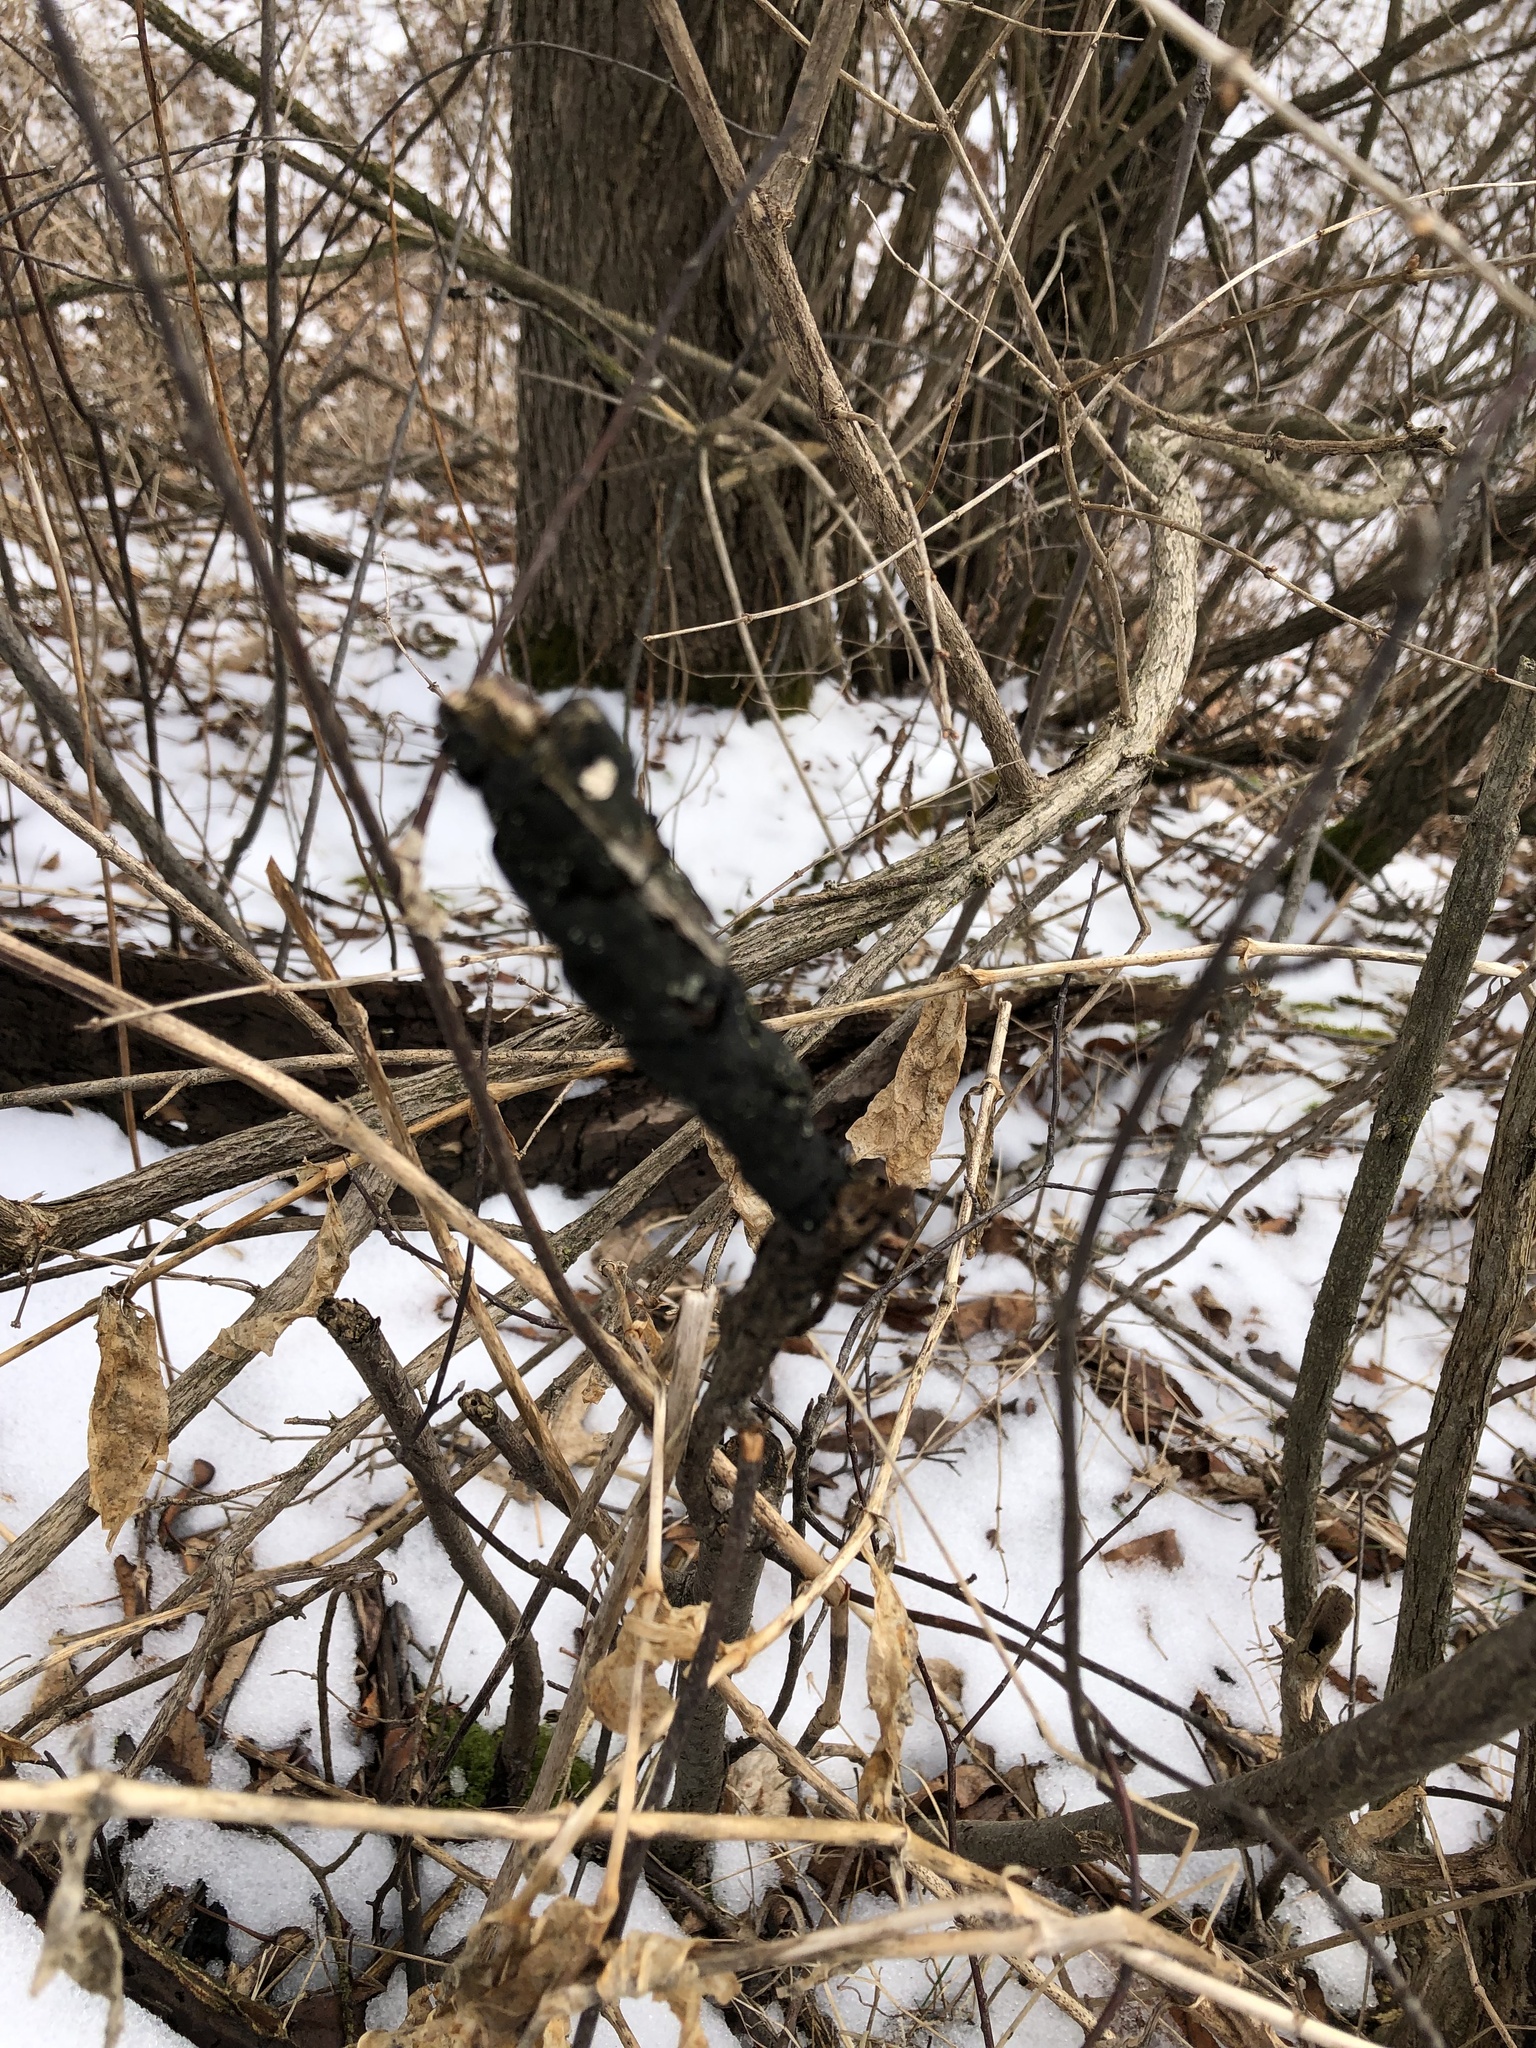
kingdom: Fungi
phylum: Ascomycota
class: Dothideomycetes
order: Venturiales
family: Venturiaceae
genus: Apiosporina
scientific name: Apiosporina morbosa
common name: Black knot
